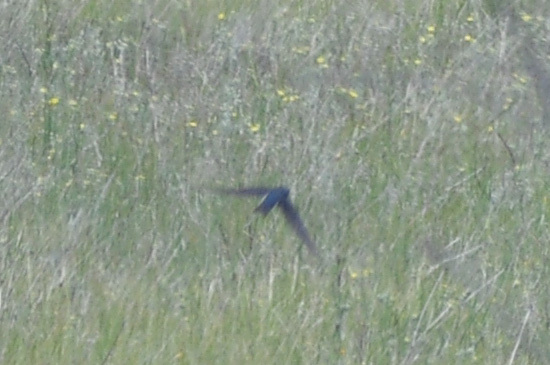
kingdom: Animalia
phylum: Chordata
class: Aves
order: Passeriformes
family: Hirundinidae
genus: Tachycineta
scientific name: Tachycineta bicolor
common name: Tree swallow
